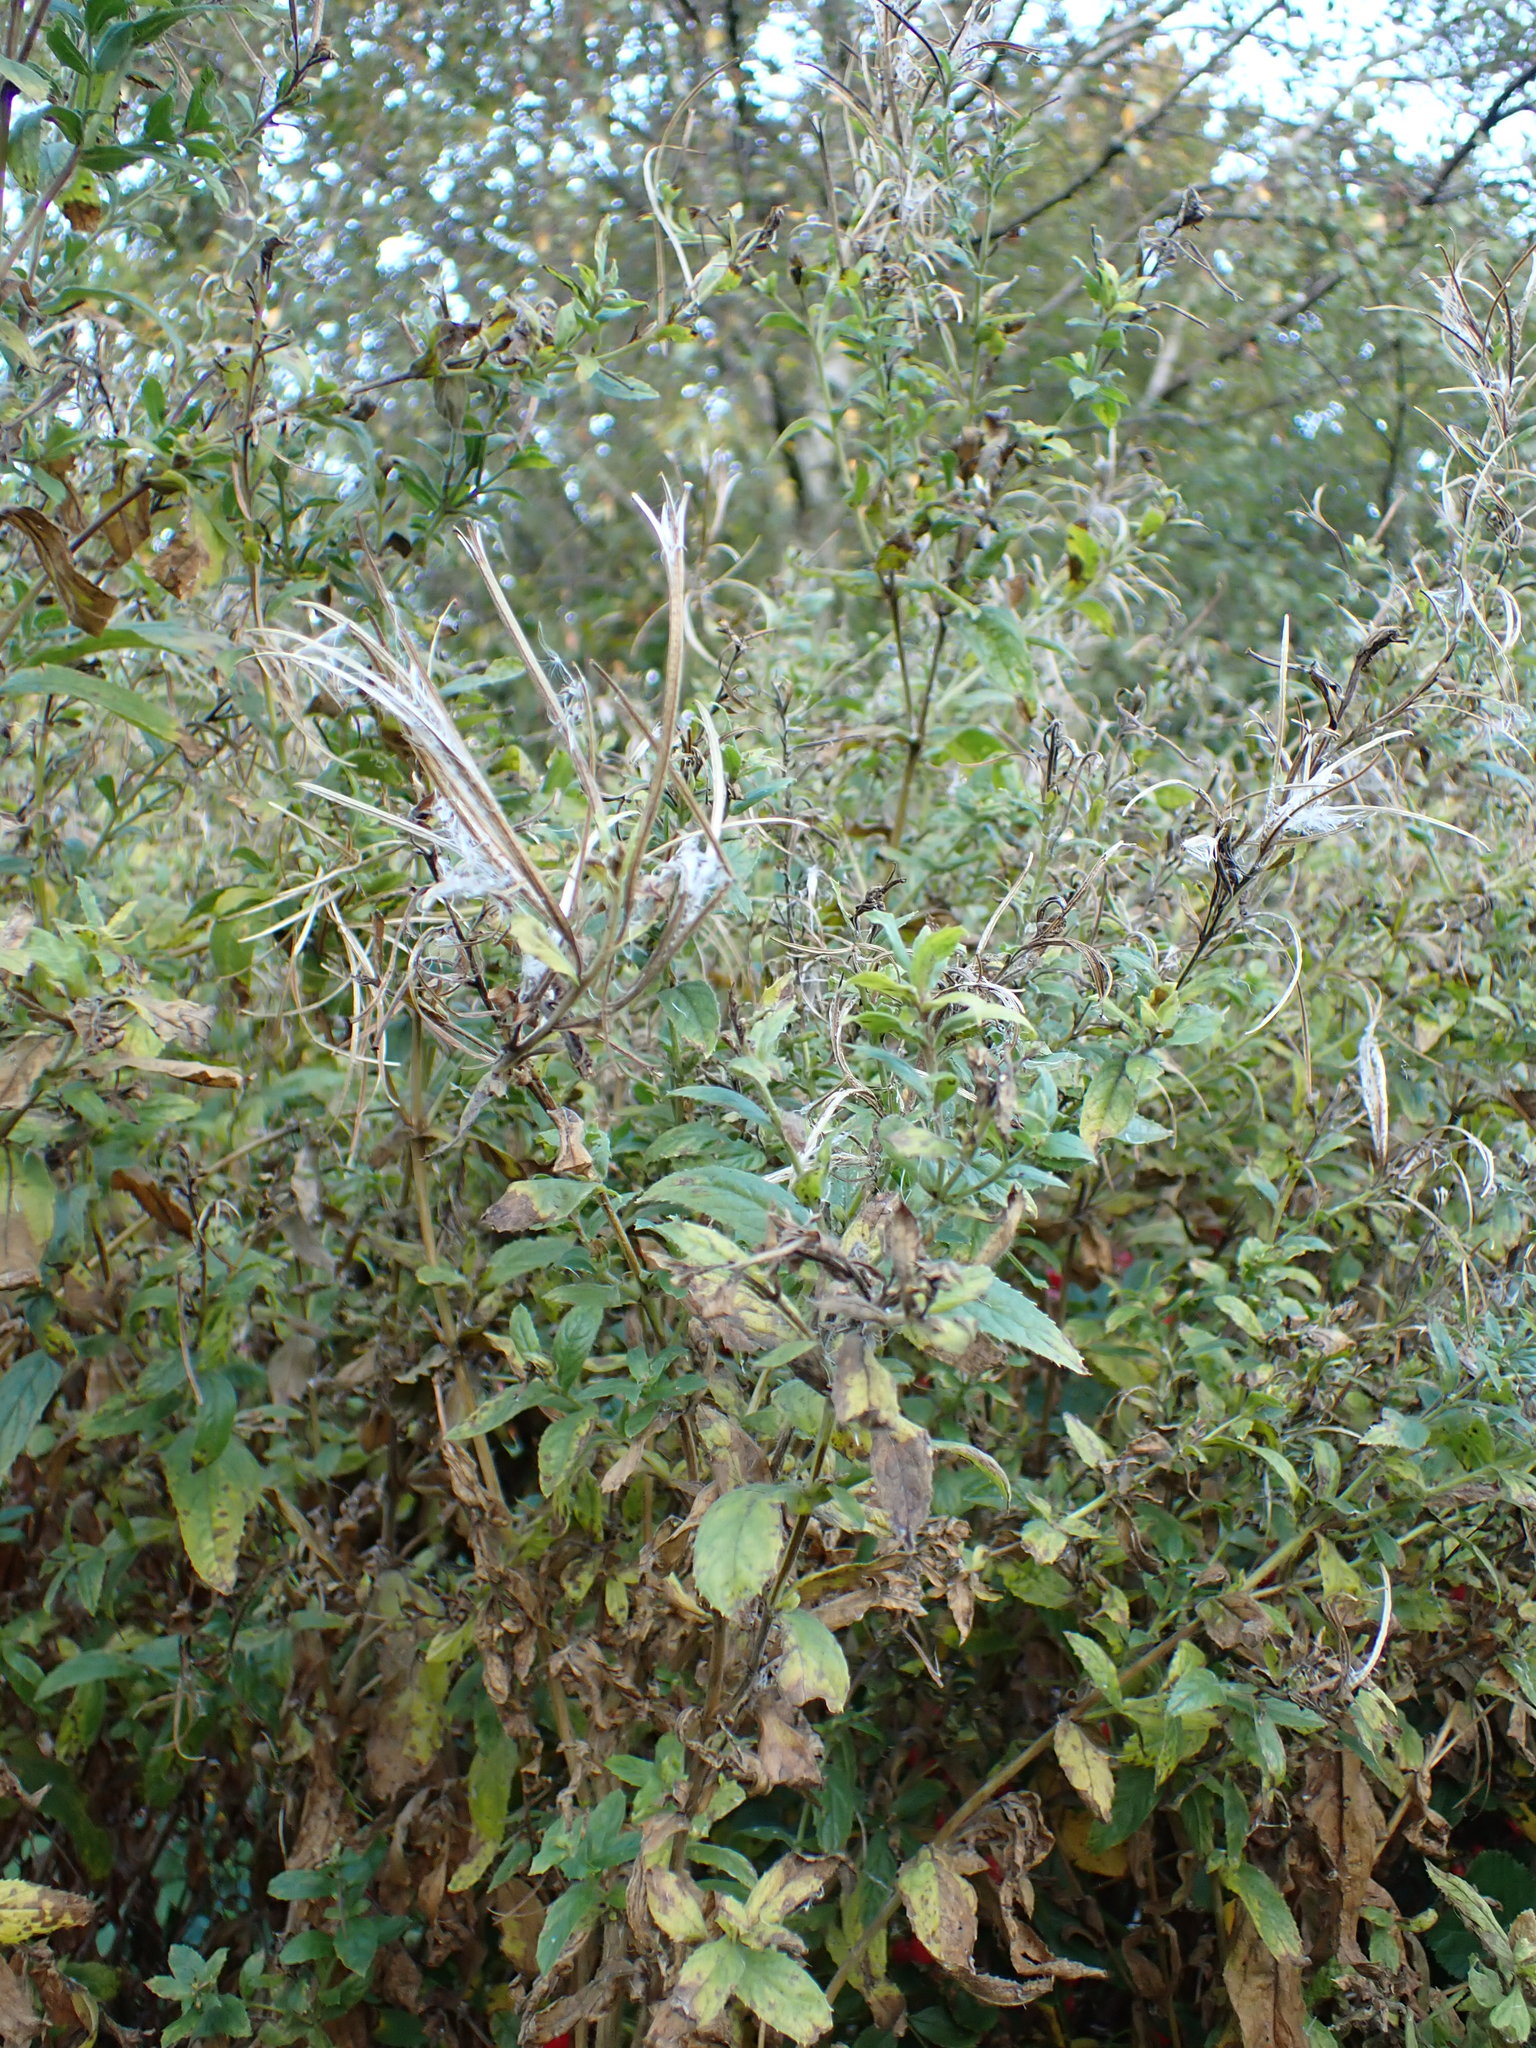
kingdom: Plantae
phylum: Tracheophyta
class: Magnoliopsida
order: Myrtales
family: Onagraceae
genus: Epilobium
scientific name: Epilobium hirsutum
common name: Great willowherb
